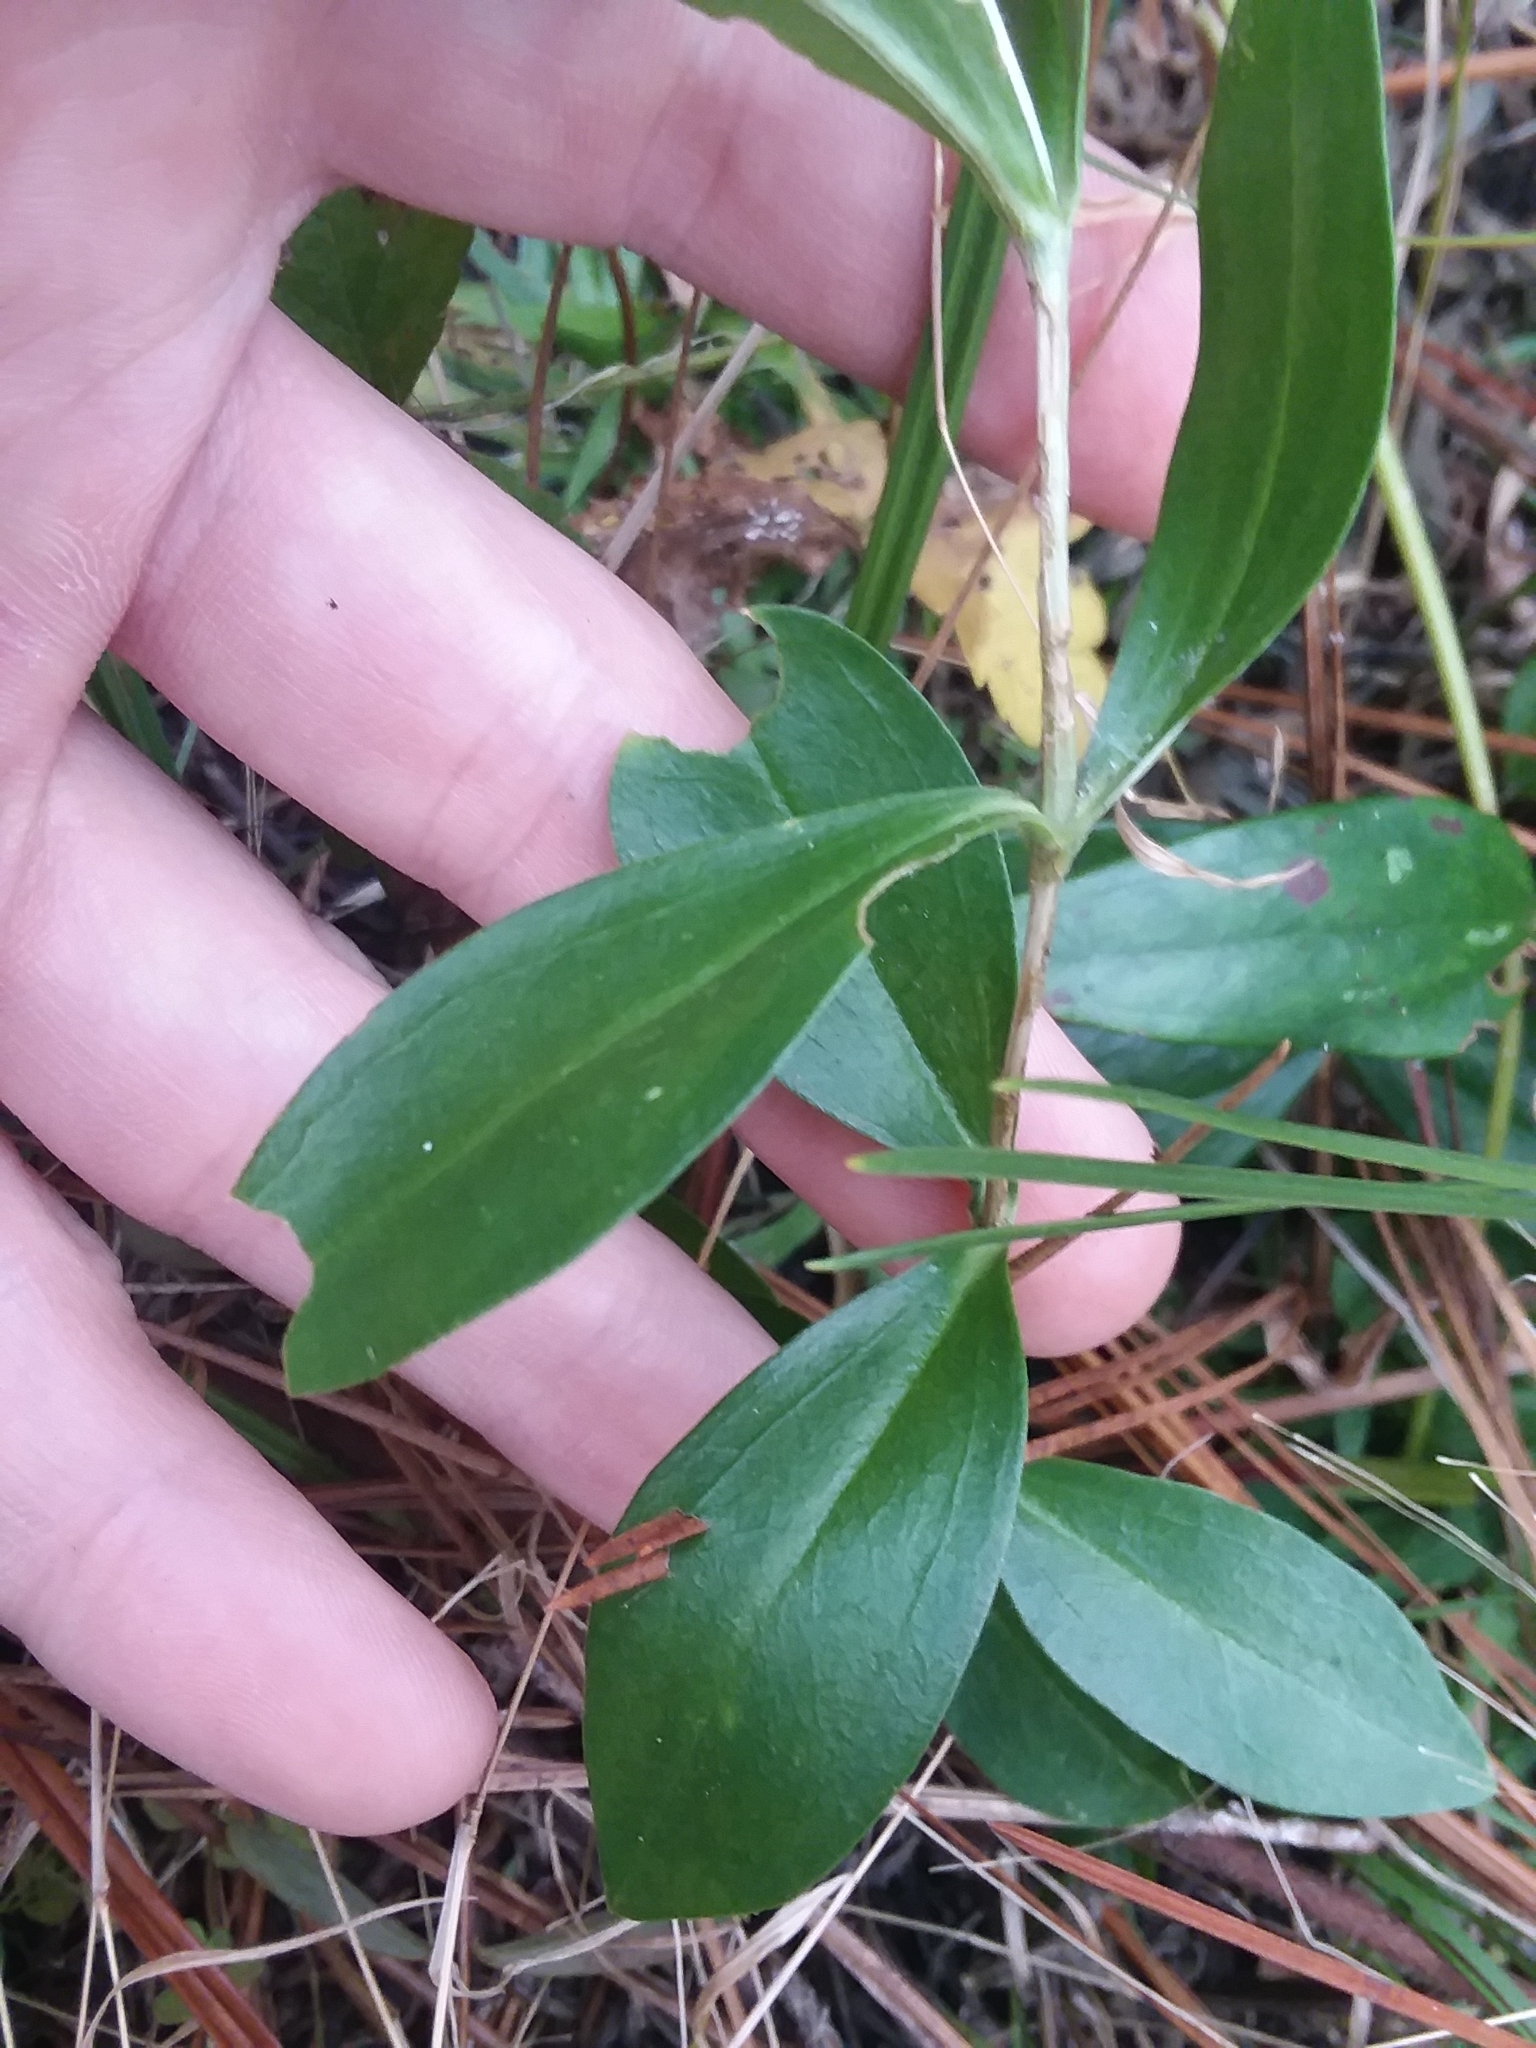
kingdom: Plantae
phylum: Tracheophyta
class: Magnoliopsida
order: Gentianales
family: Gentianaceae
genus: Gentiana
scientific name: Gentiana villosa
